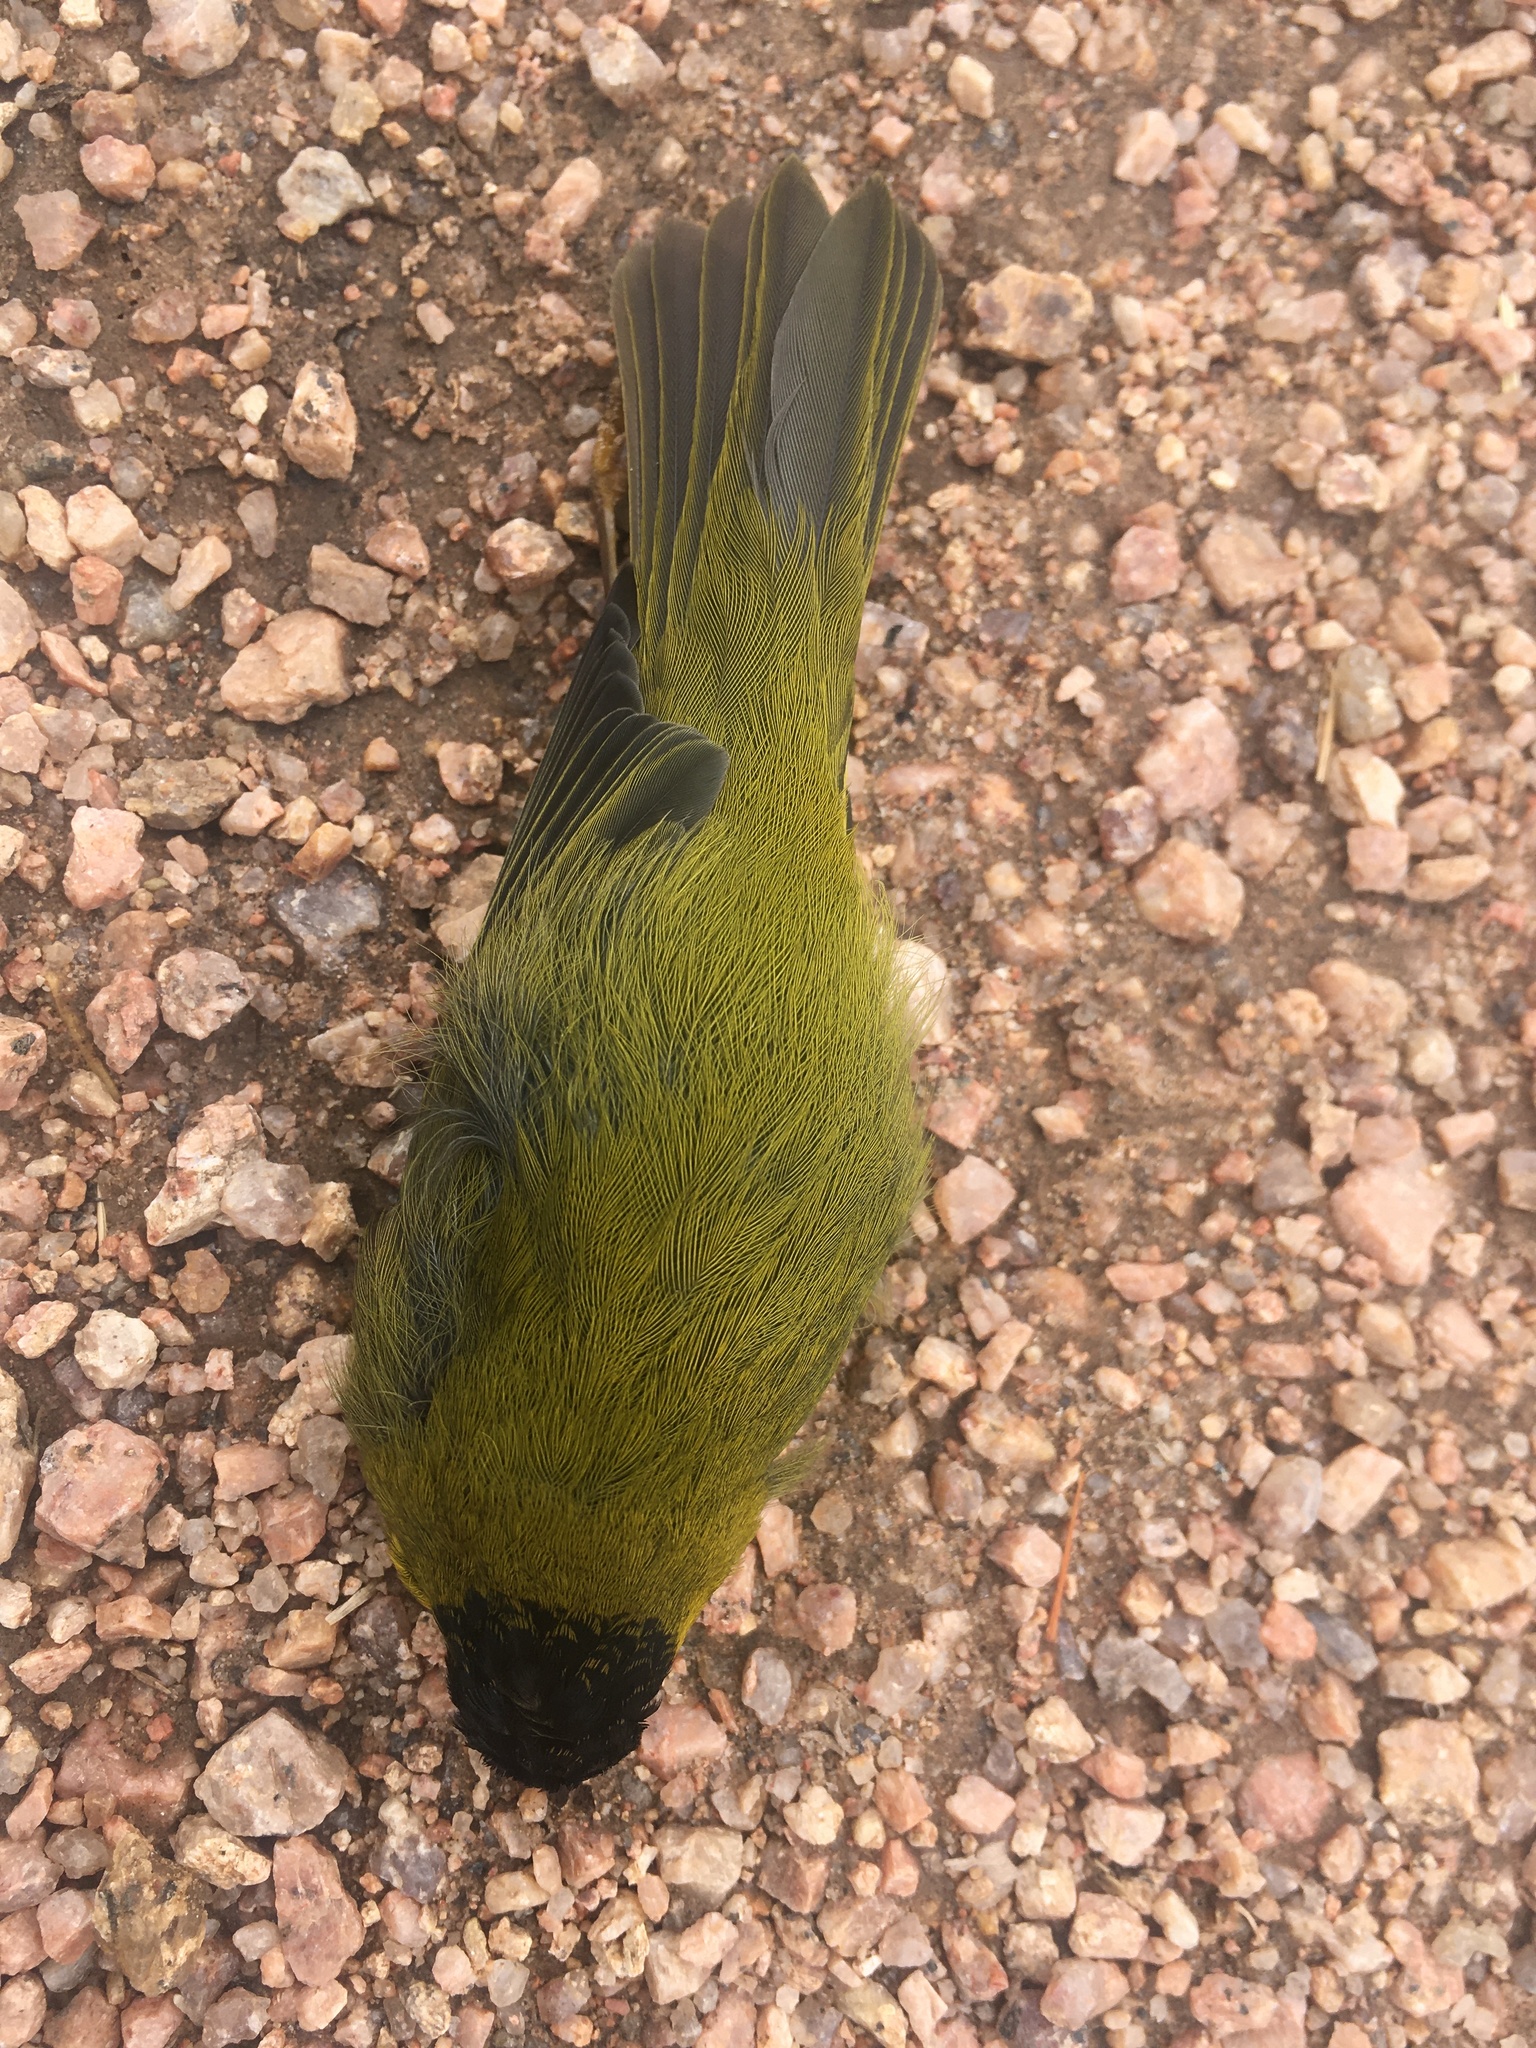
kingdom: Animalia
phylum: Chordata
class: Aves
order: Passeriformes
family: Parulidae
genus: Cardellina
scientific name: Cardellina pusilla
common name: Wilson's warbler
